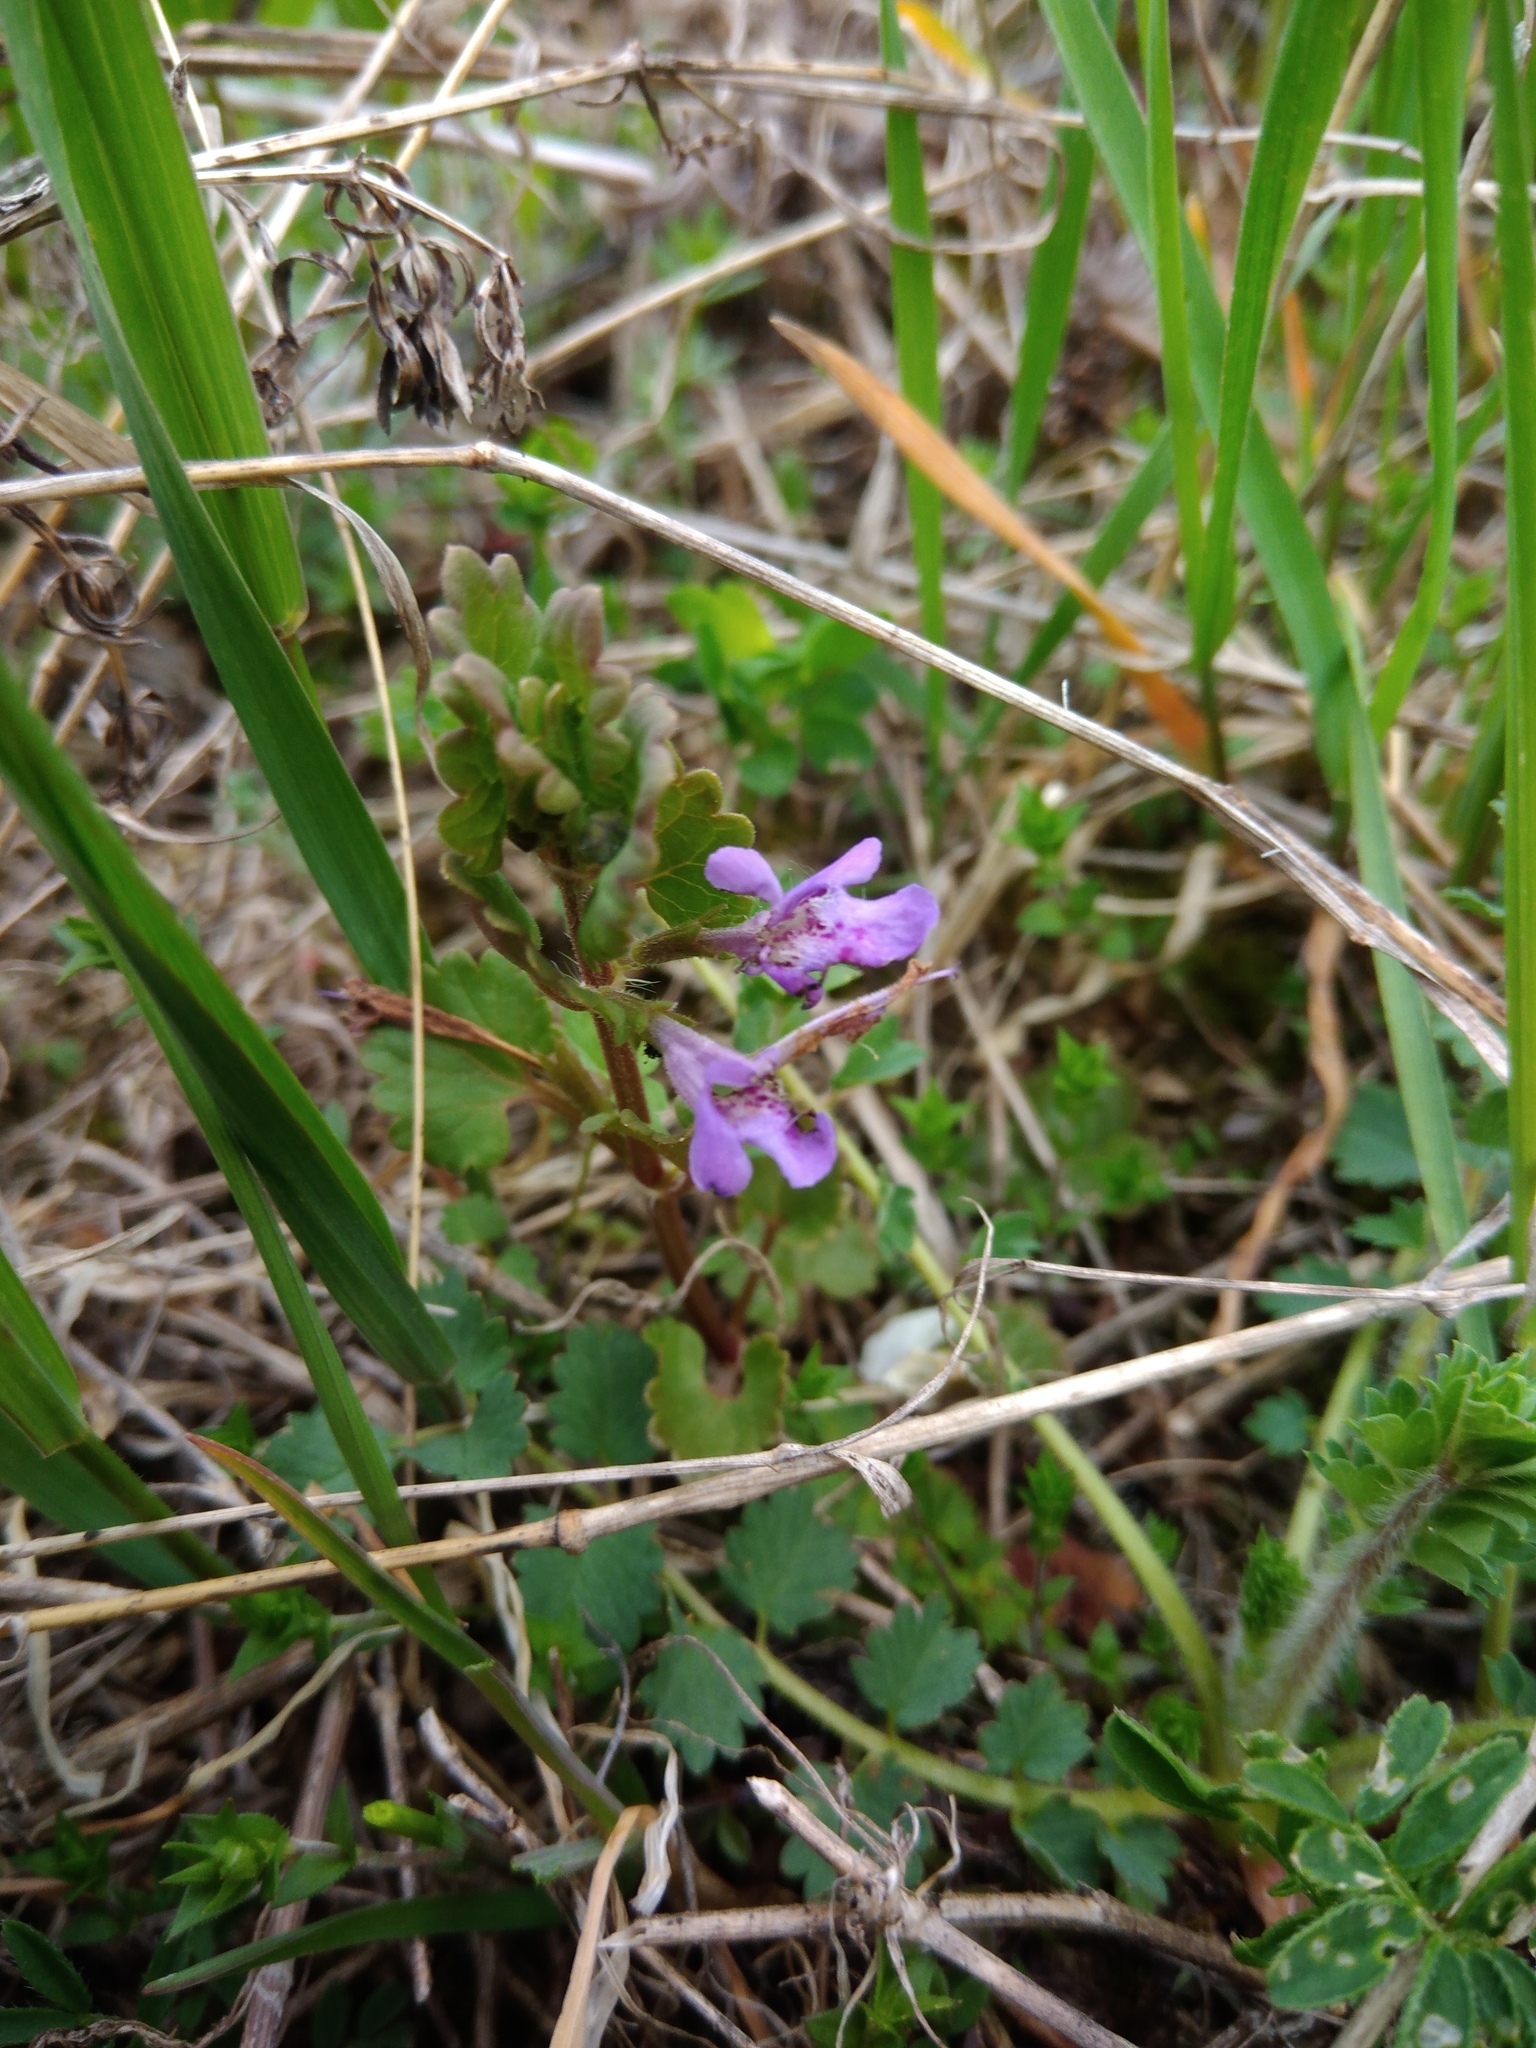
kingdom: Plantae
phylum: Tracheophyta
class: Magnoliopsida
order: Lamiales
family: Lamiaceae
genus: Glechoma
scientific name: Glechoma hederacea
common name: Ground ivy
